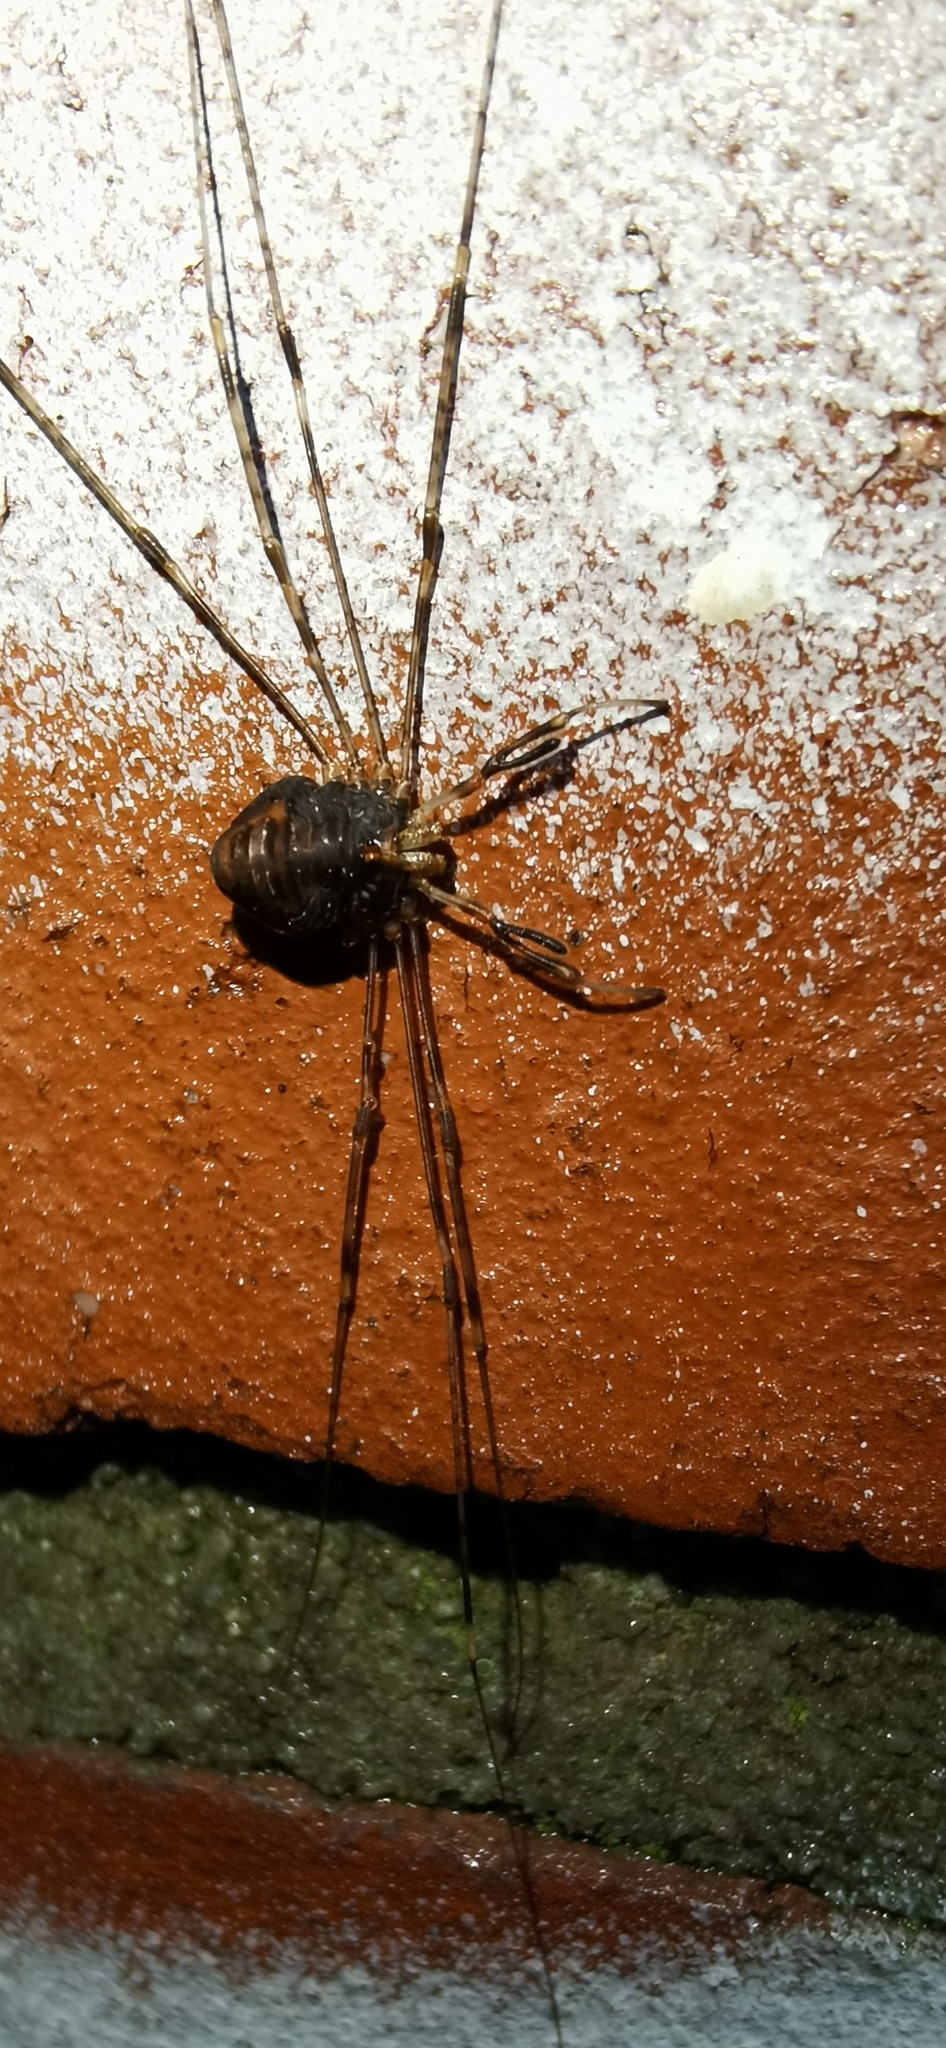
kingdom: Animalia
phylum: Arthropoda
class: Arachnida
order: Opiliones
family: Phalangiidae
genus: Dicranopalpus
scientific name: Dicranopalpus ramosus
